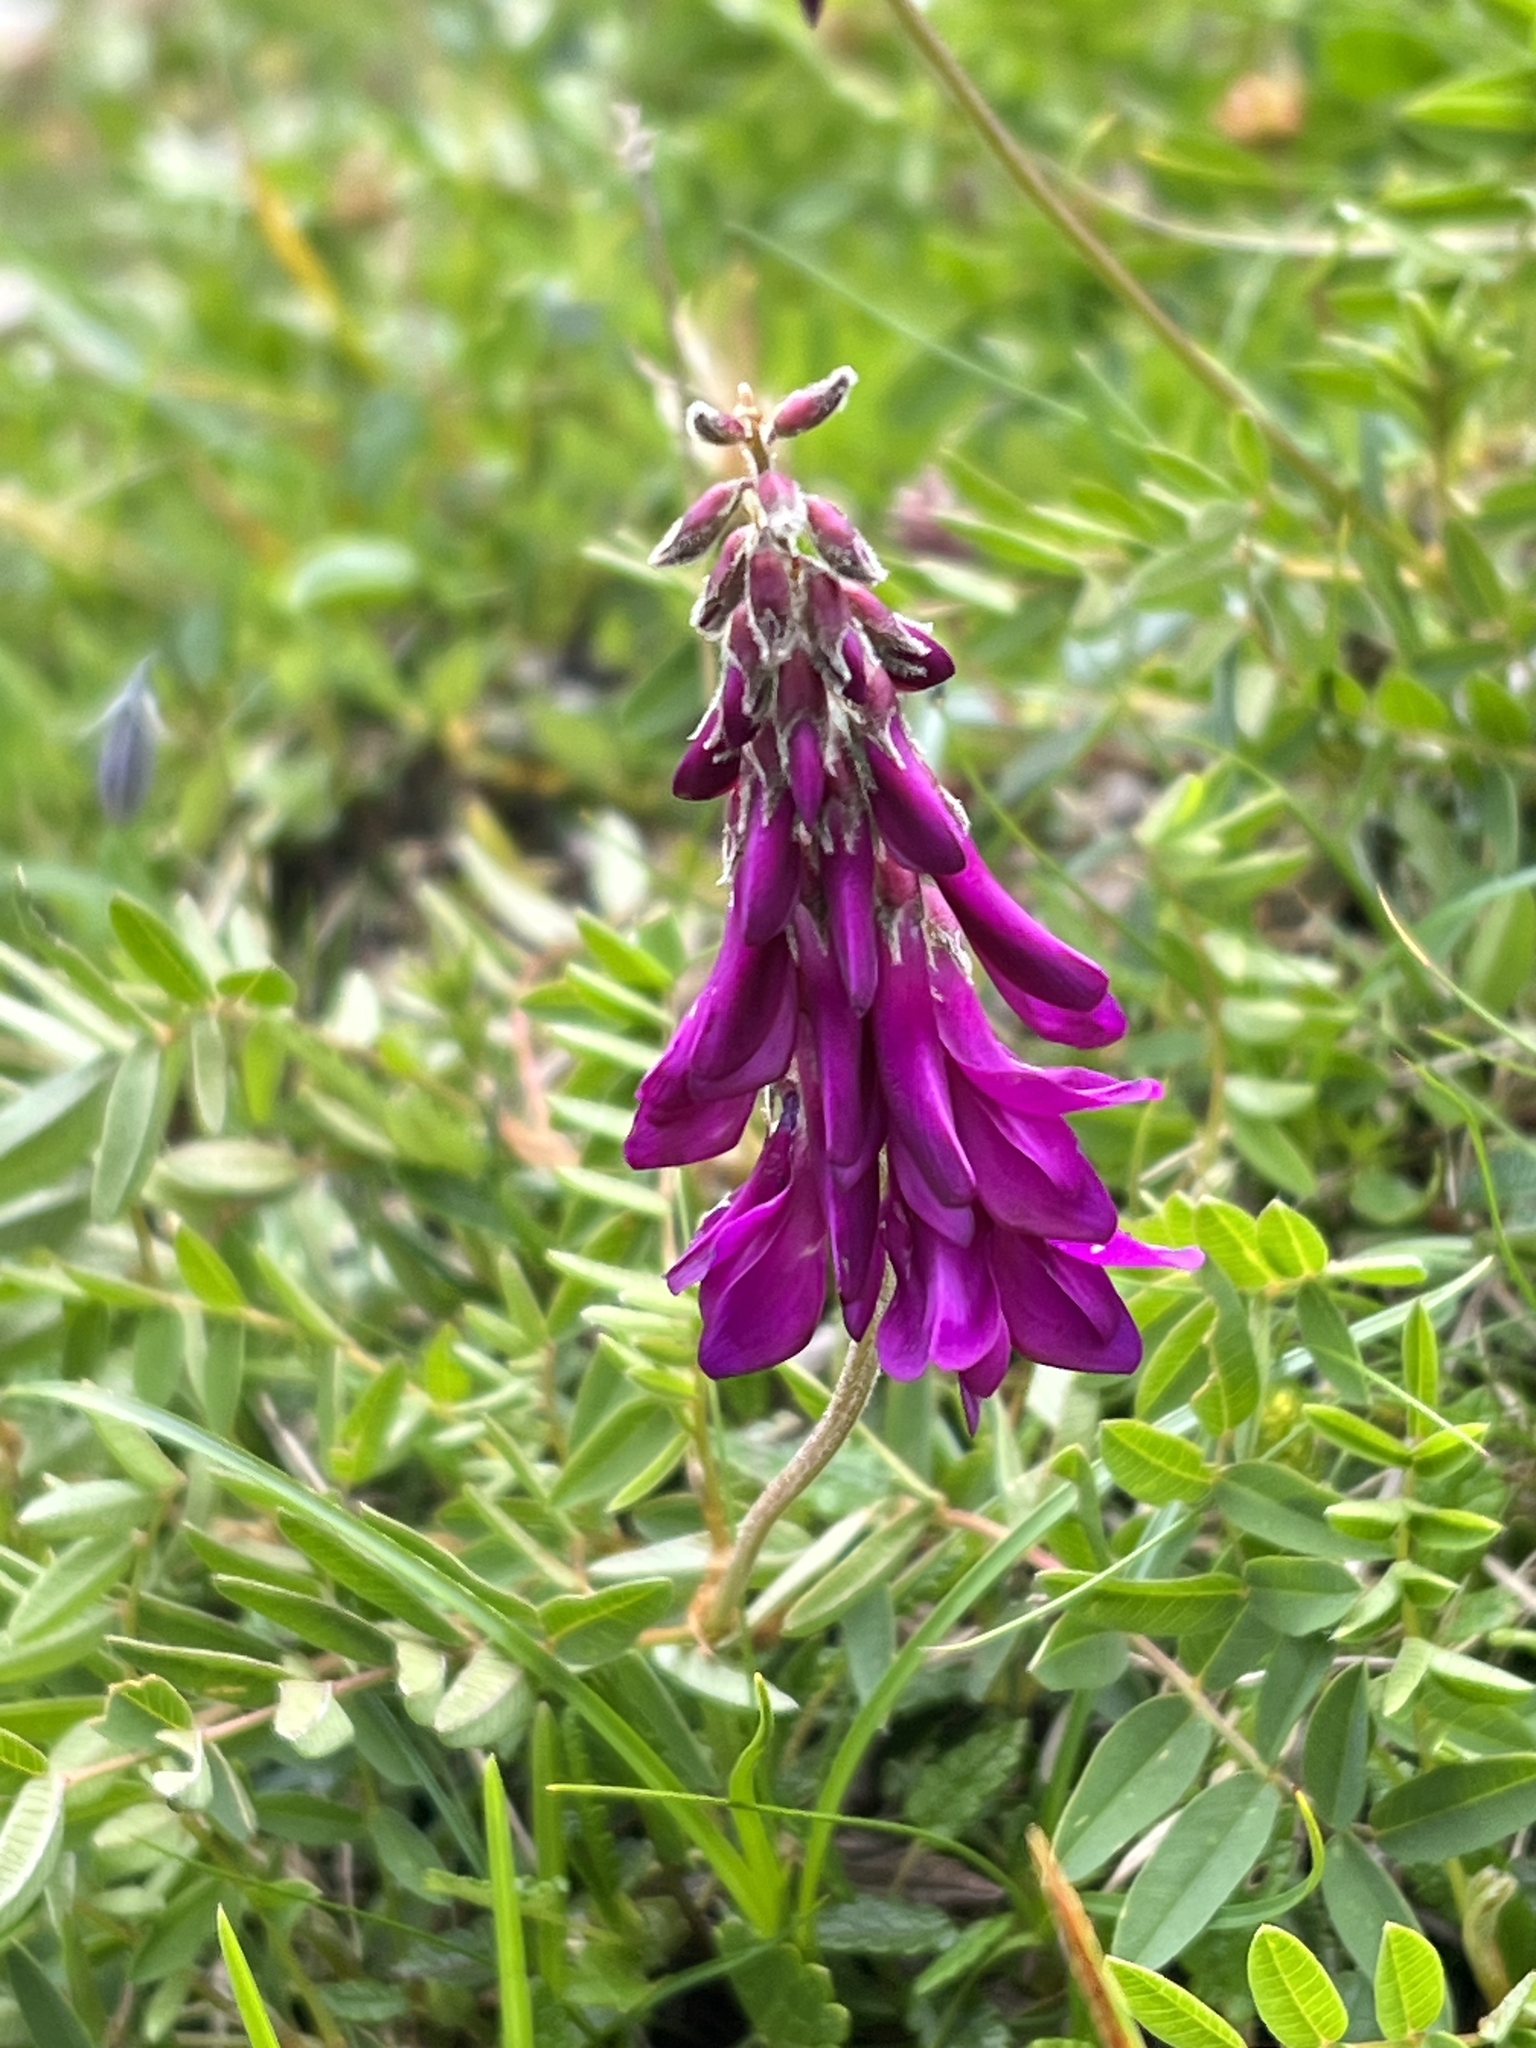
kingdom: Plantae
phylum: Tracheophyta
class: Magnoliopsida
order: Fabales
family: Fabaceae
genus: Hedysarum
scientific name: Hedysarum hedysaroides
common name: Alpine french-honeysuckle
